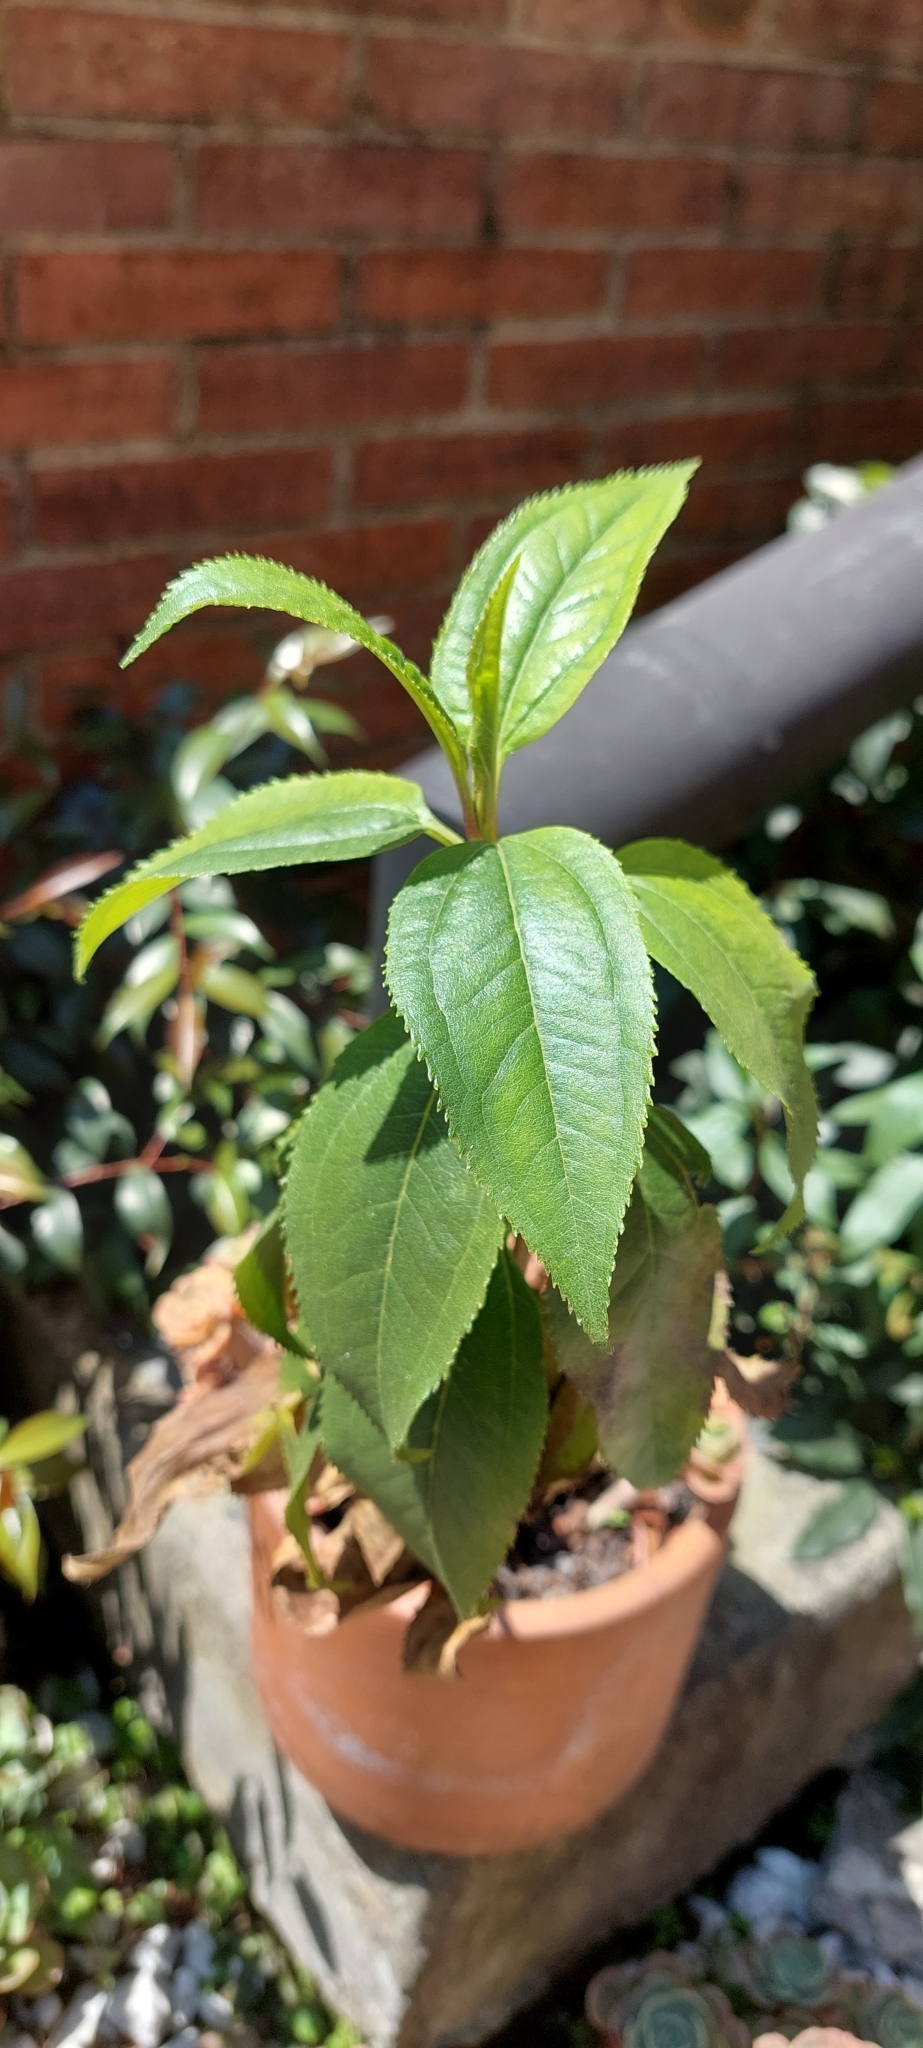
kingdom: Plantae
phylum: Tracheophyta
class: Magnoliopsida
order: Asterales
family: Asteraceae
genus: Baccharis
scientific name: Baccharis latifolia
